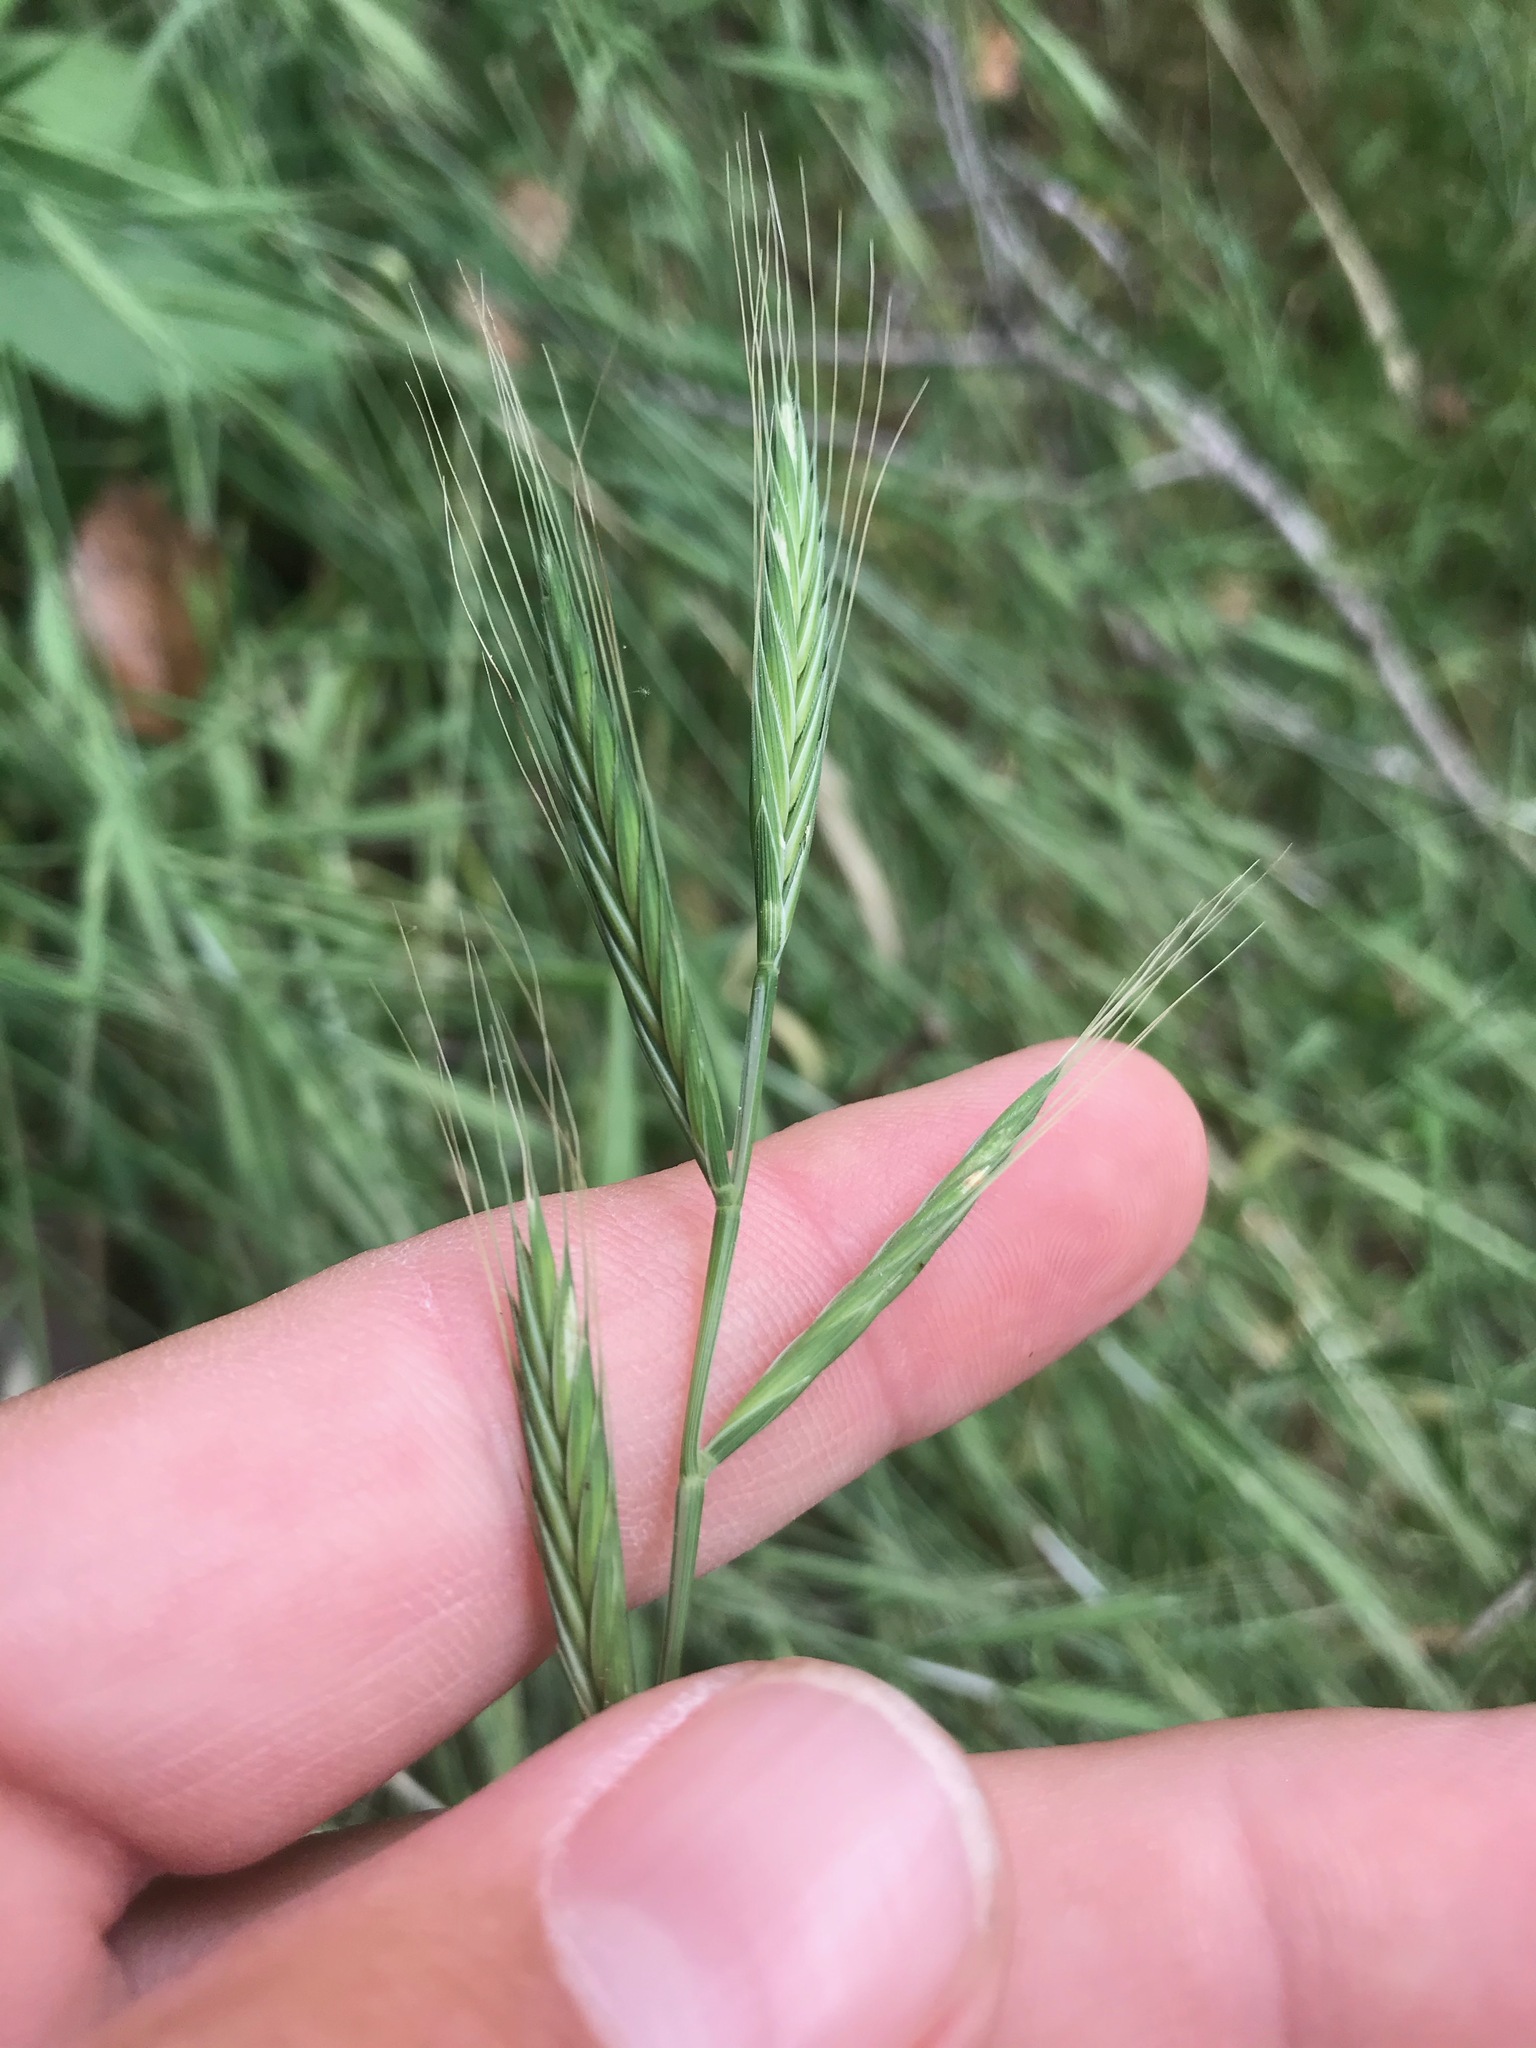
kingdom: Plantae
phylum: Tracheophyta
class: Liliopsida
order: Poales
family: Poaceae
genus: Brachypodium
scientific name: Brachypodium distachyon
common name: Stiff brome
